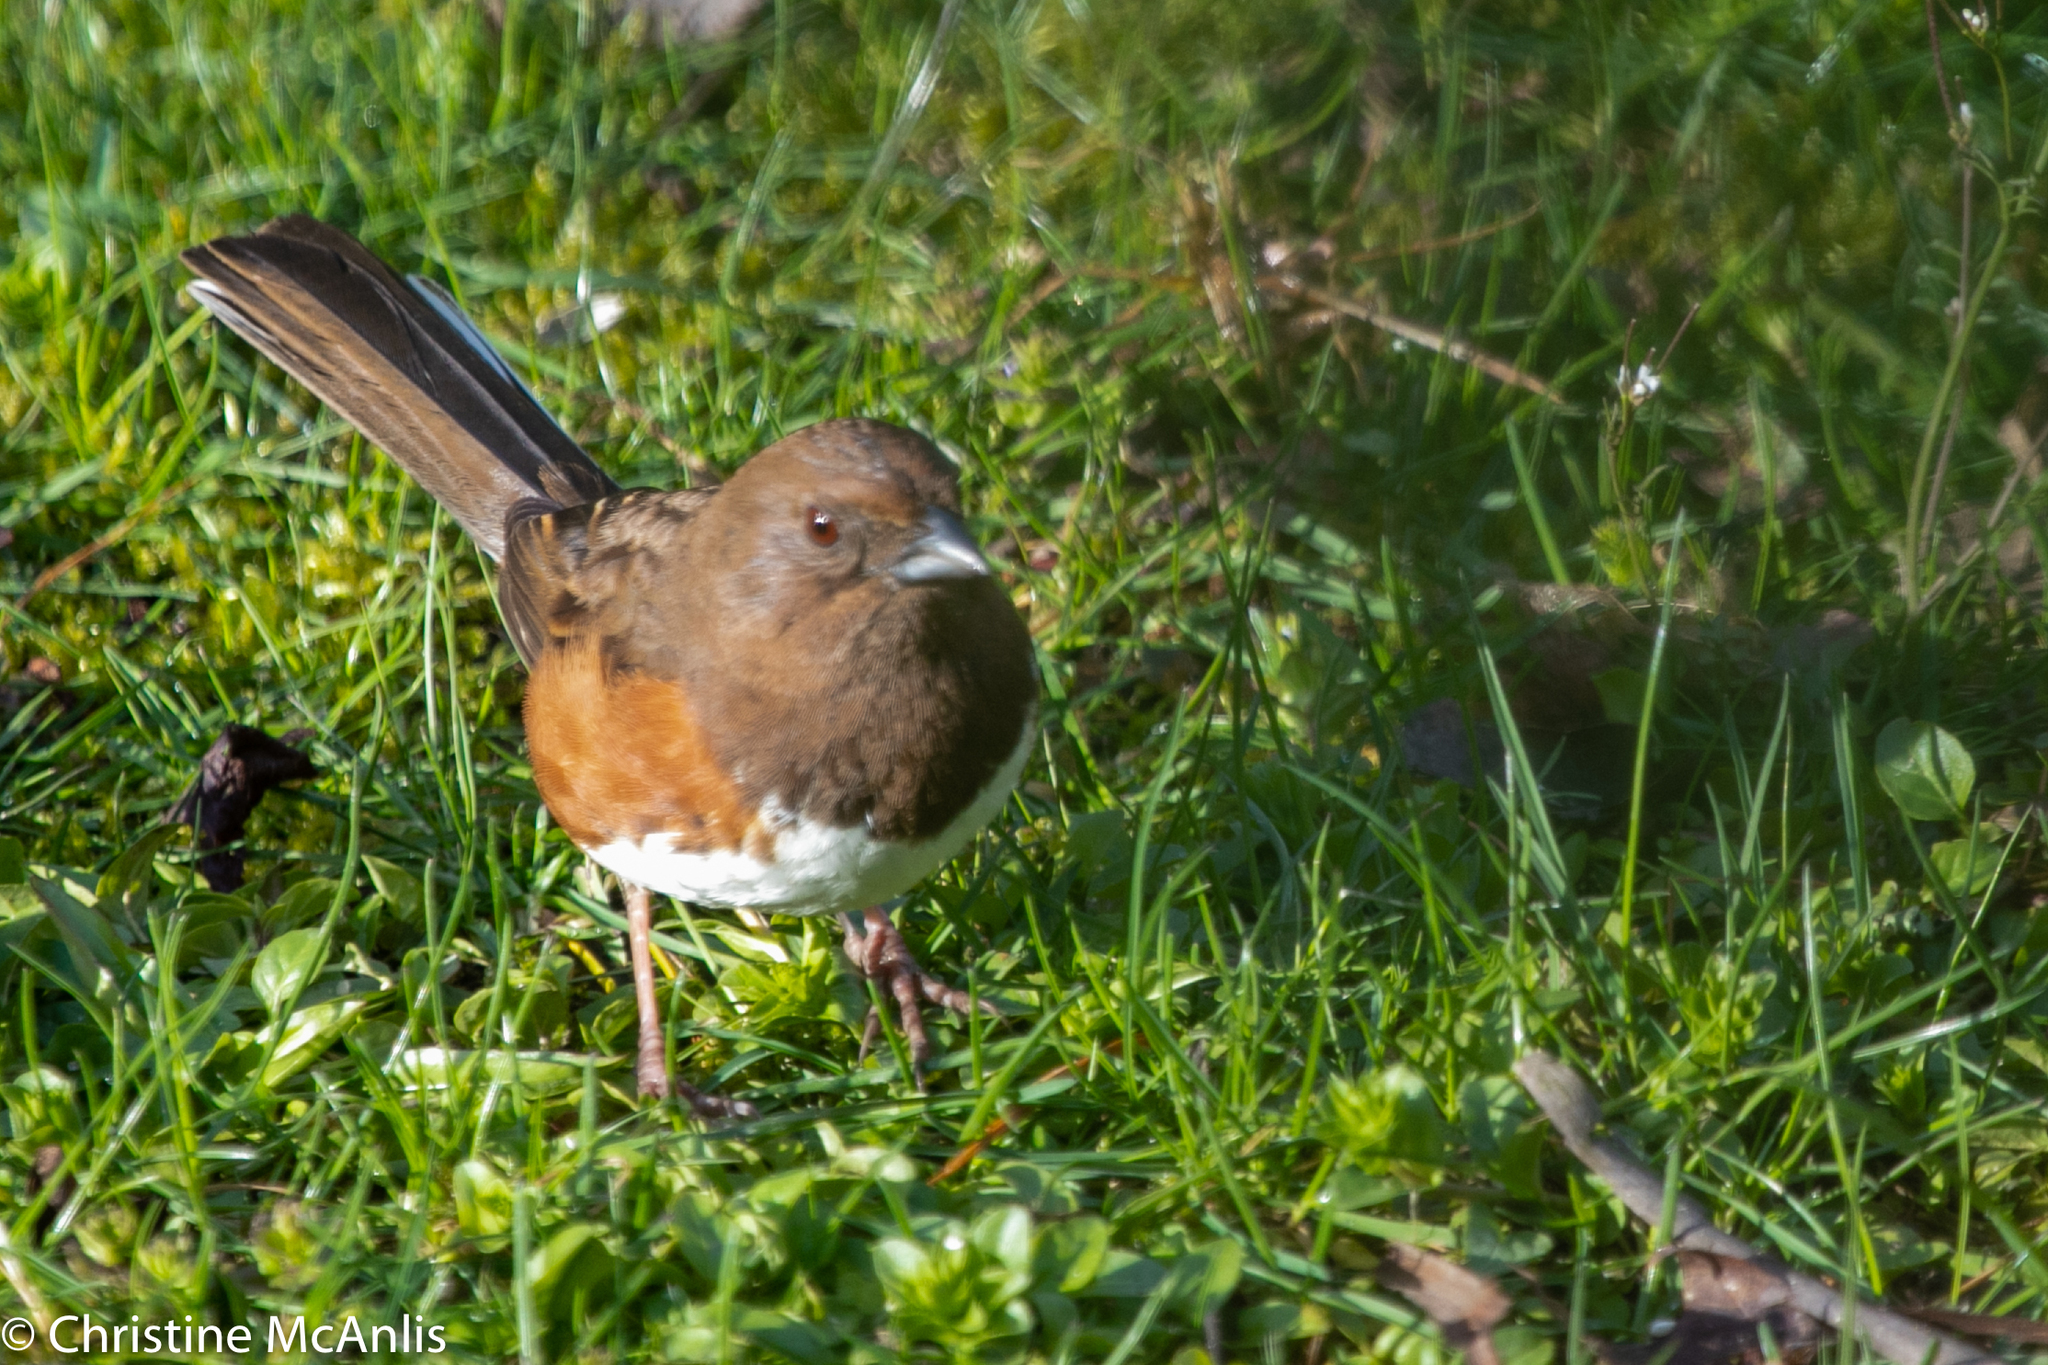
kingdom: Animalia
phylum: Chordata
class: Aves
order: Passeriformes
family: Passerellidae
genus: Pipilo
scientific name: Pipilo erythrophthalmus
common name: Eastern towhee
